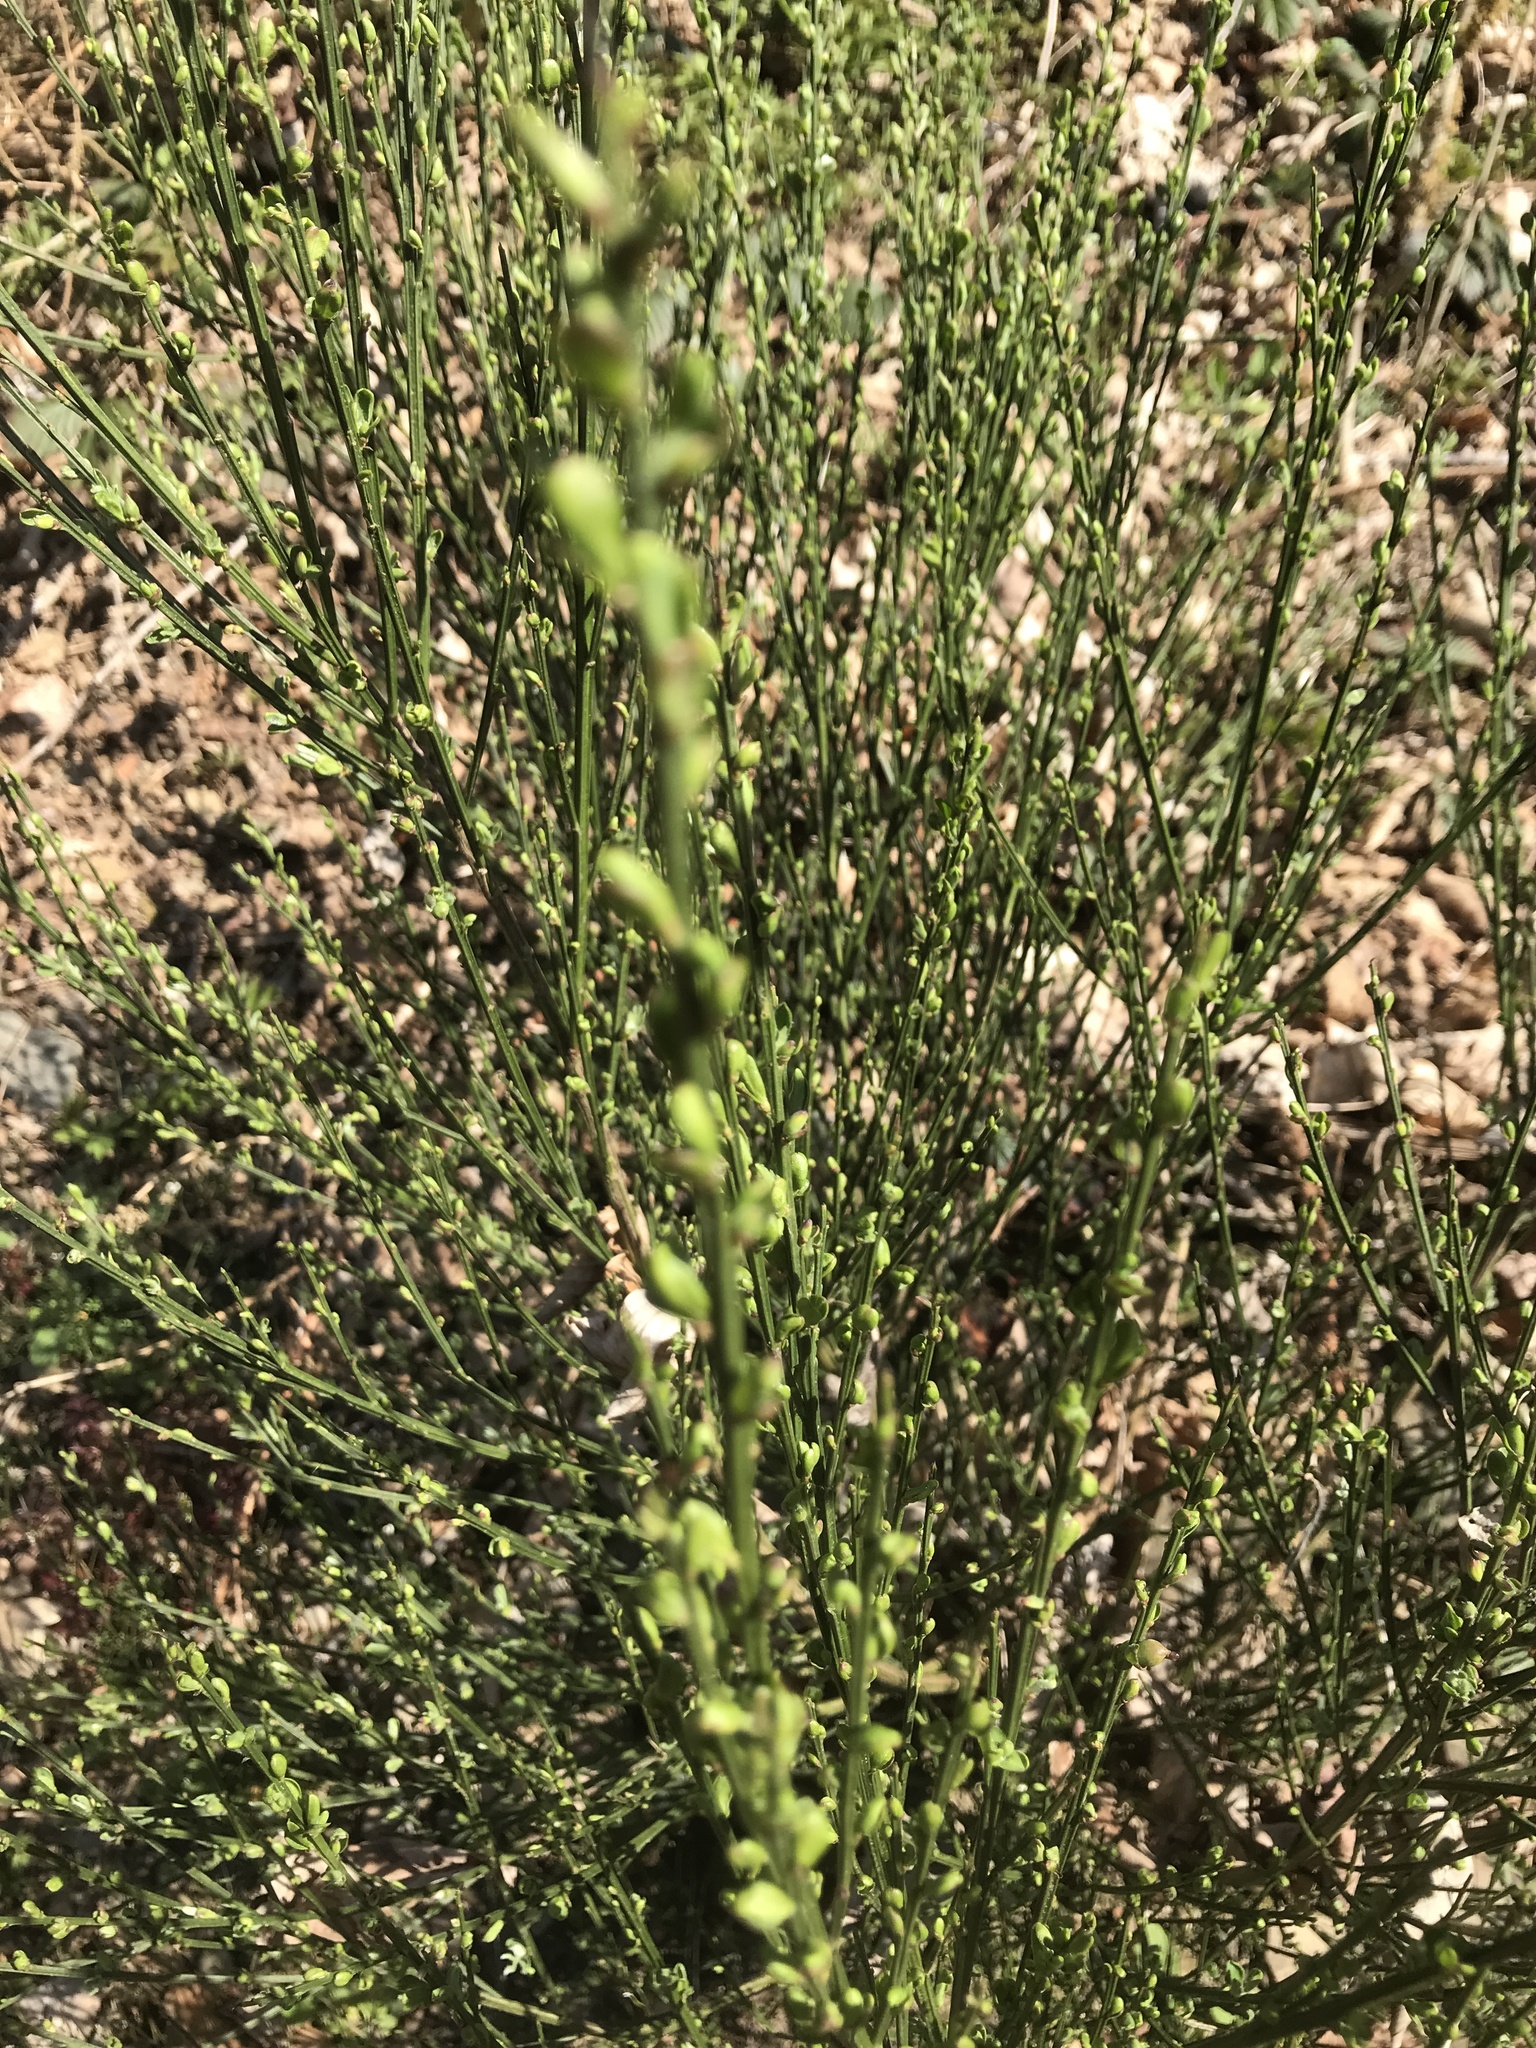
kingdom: Plantae
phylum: Tracheophyta
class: Magnoliopsida
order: Fabales
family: Fabaceae
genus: Cytisus
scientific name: Cytisus scoparius
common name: Scotch broom
